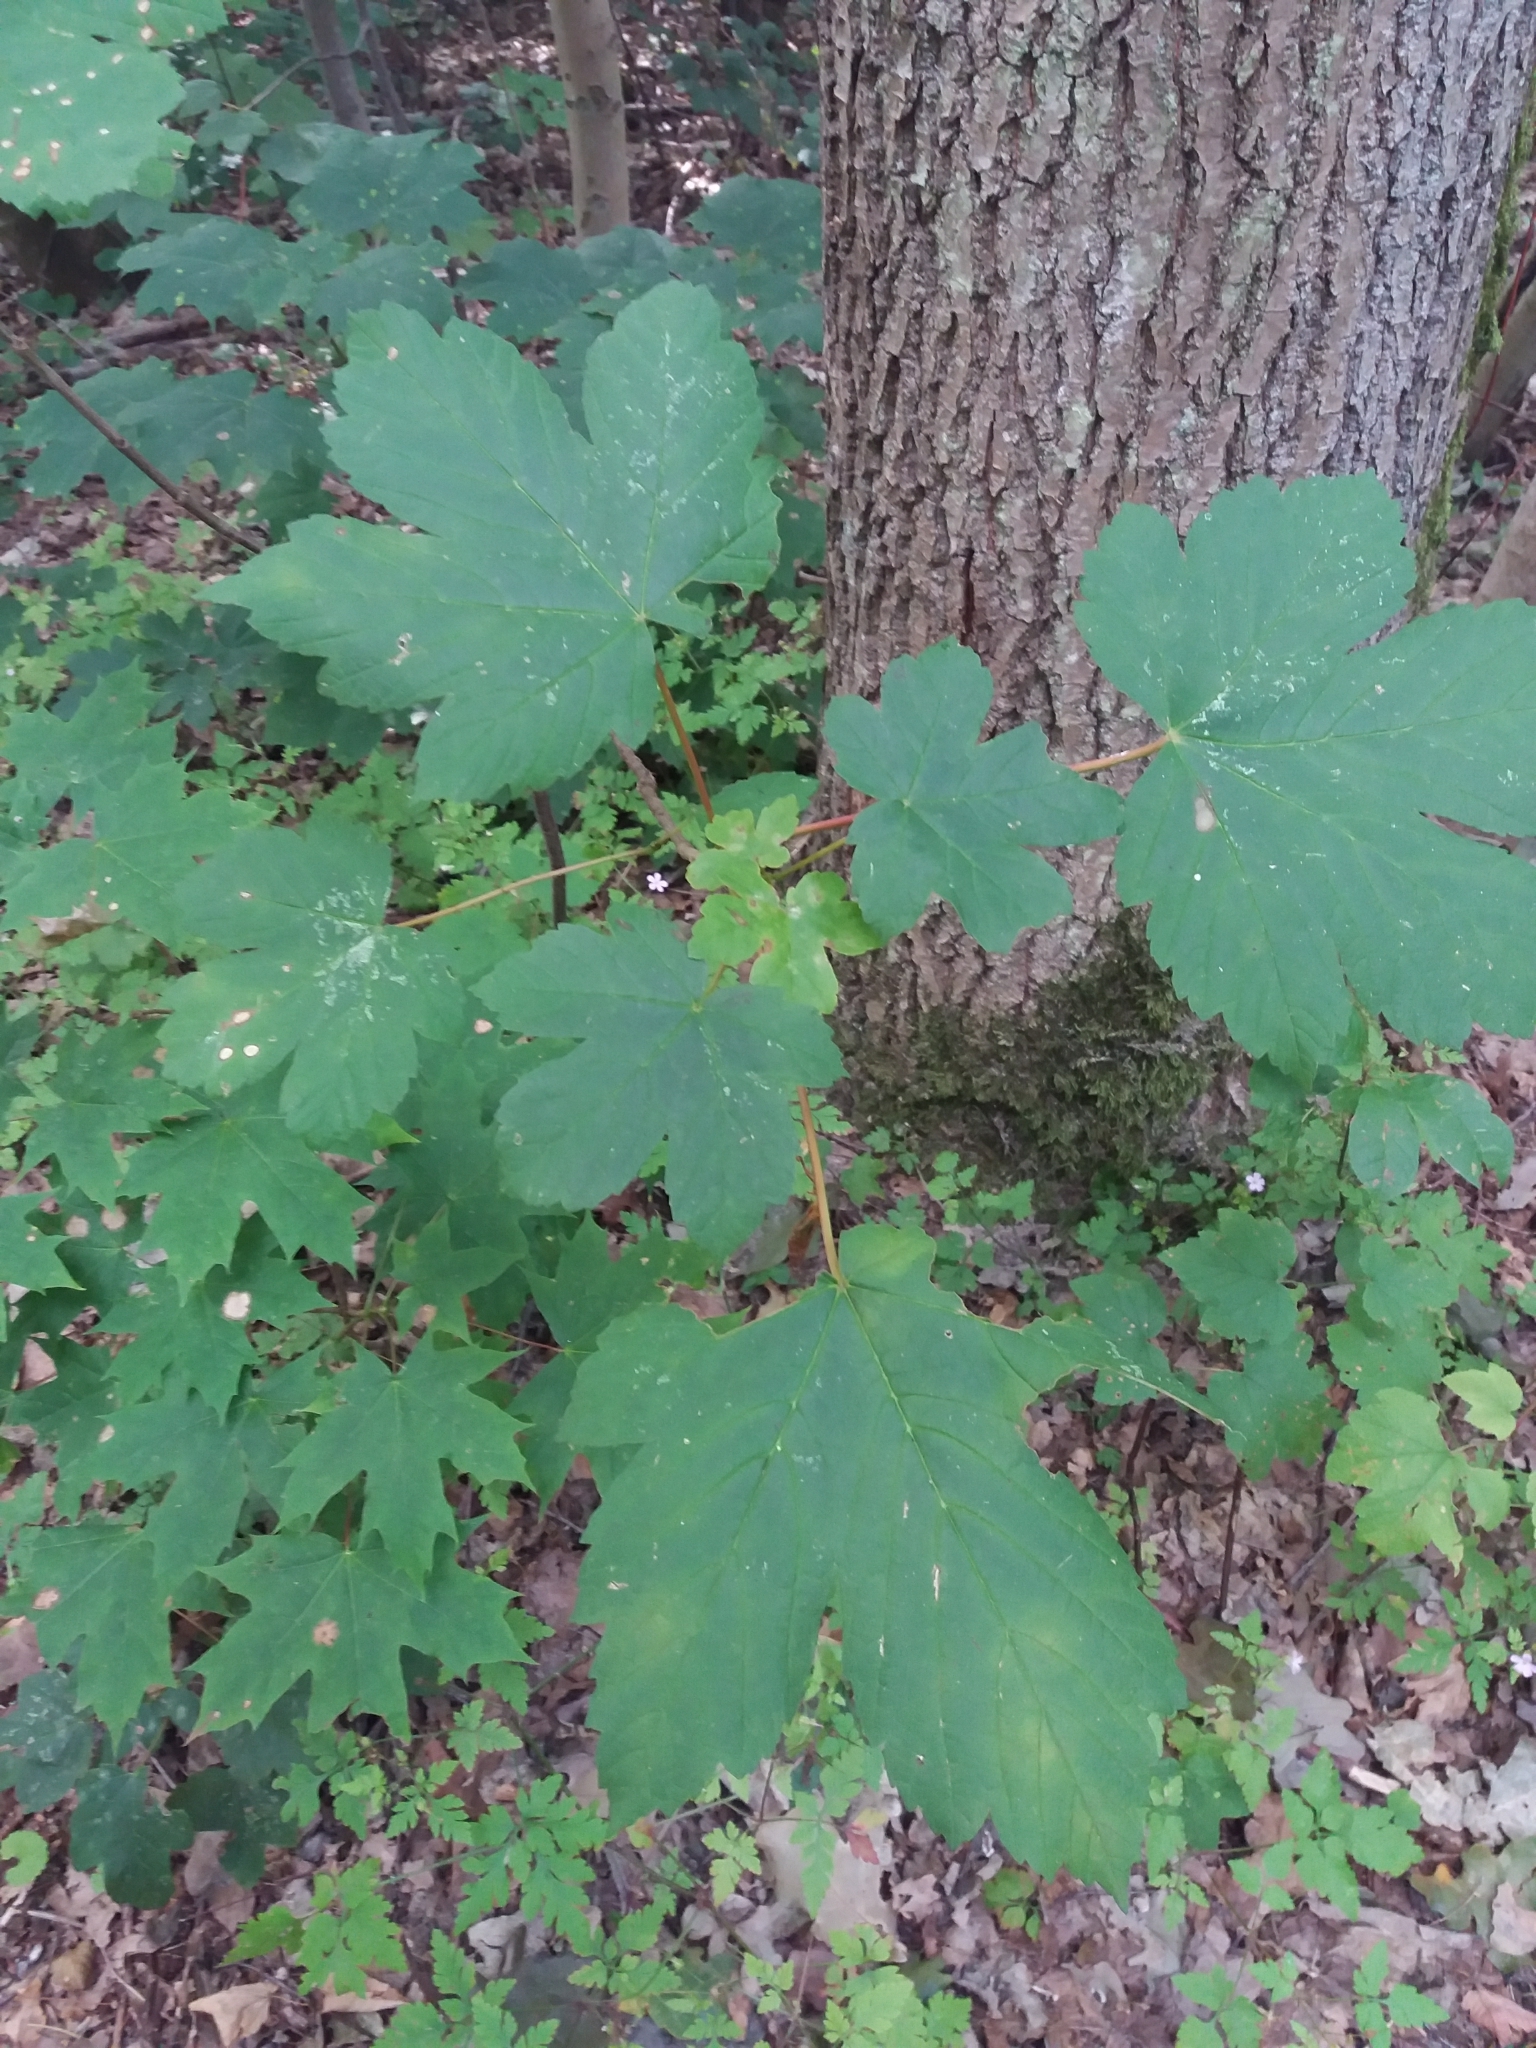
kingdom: Plantae
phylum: Tracheophyta
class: Magnoliopsida
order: Sapindales
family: Sapindaceae
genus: Acer
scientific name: Acer pseudoplatanus
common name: Sycamore
